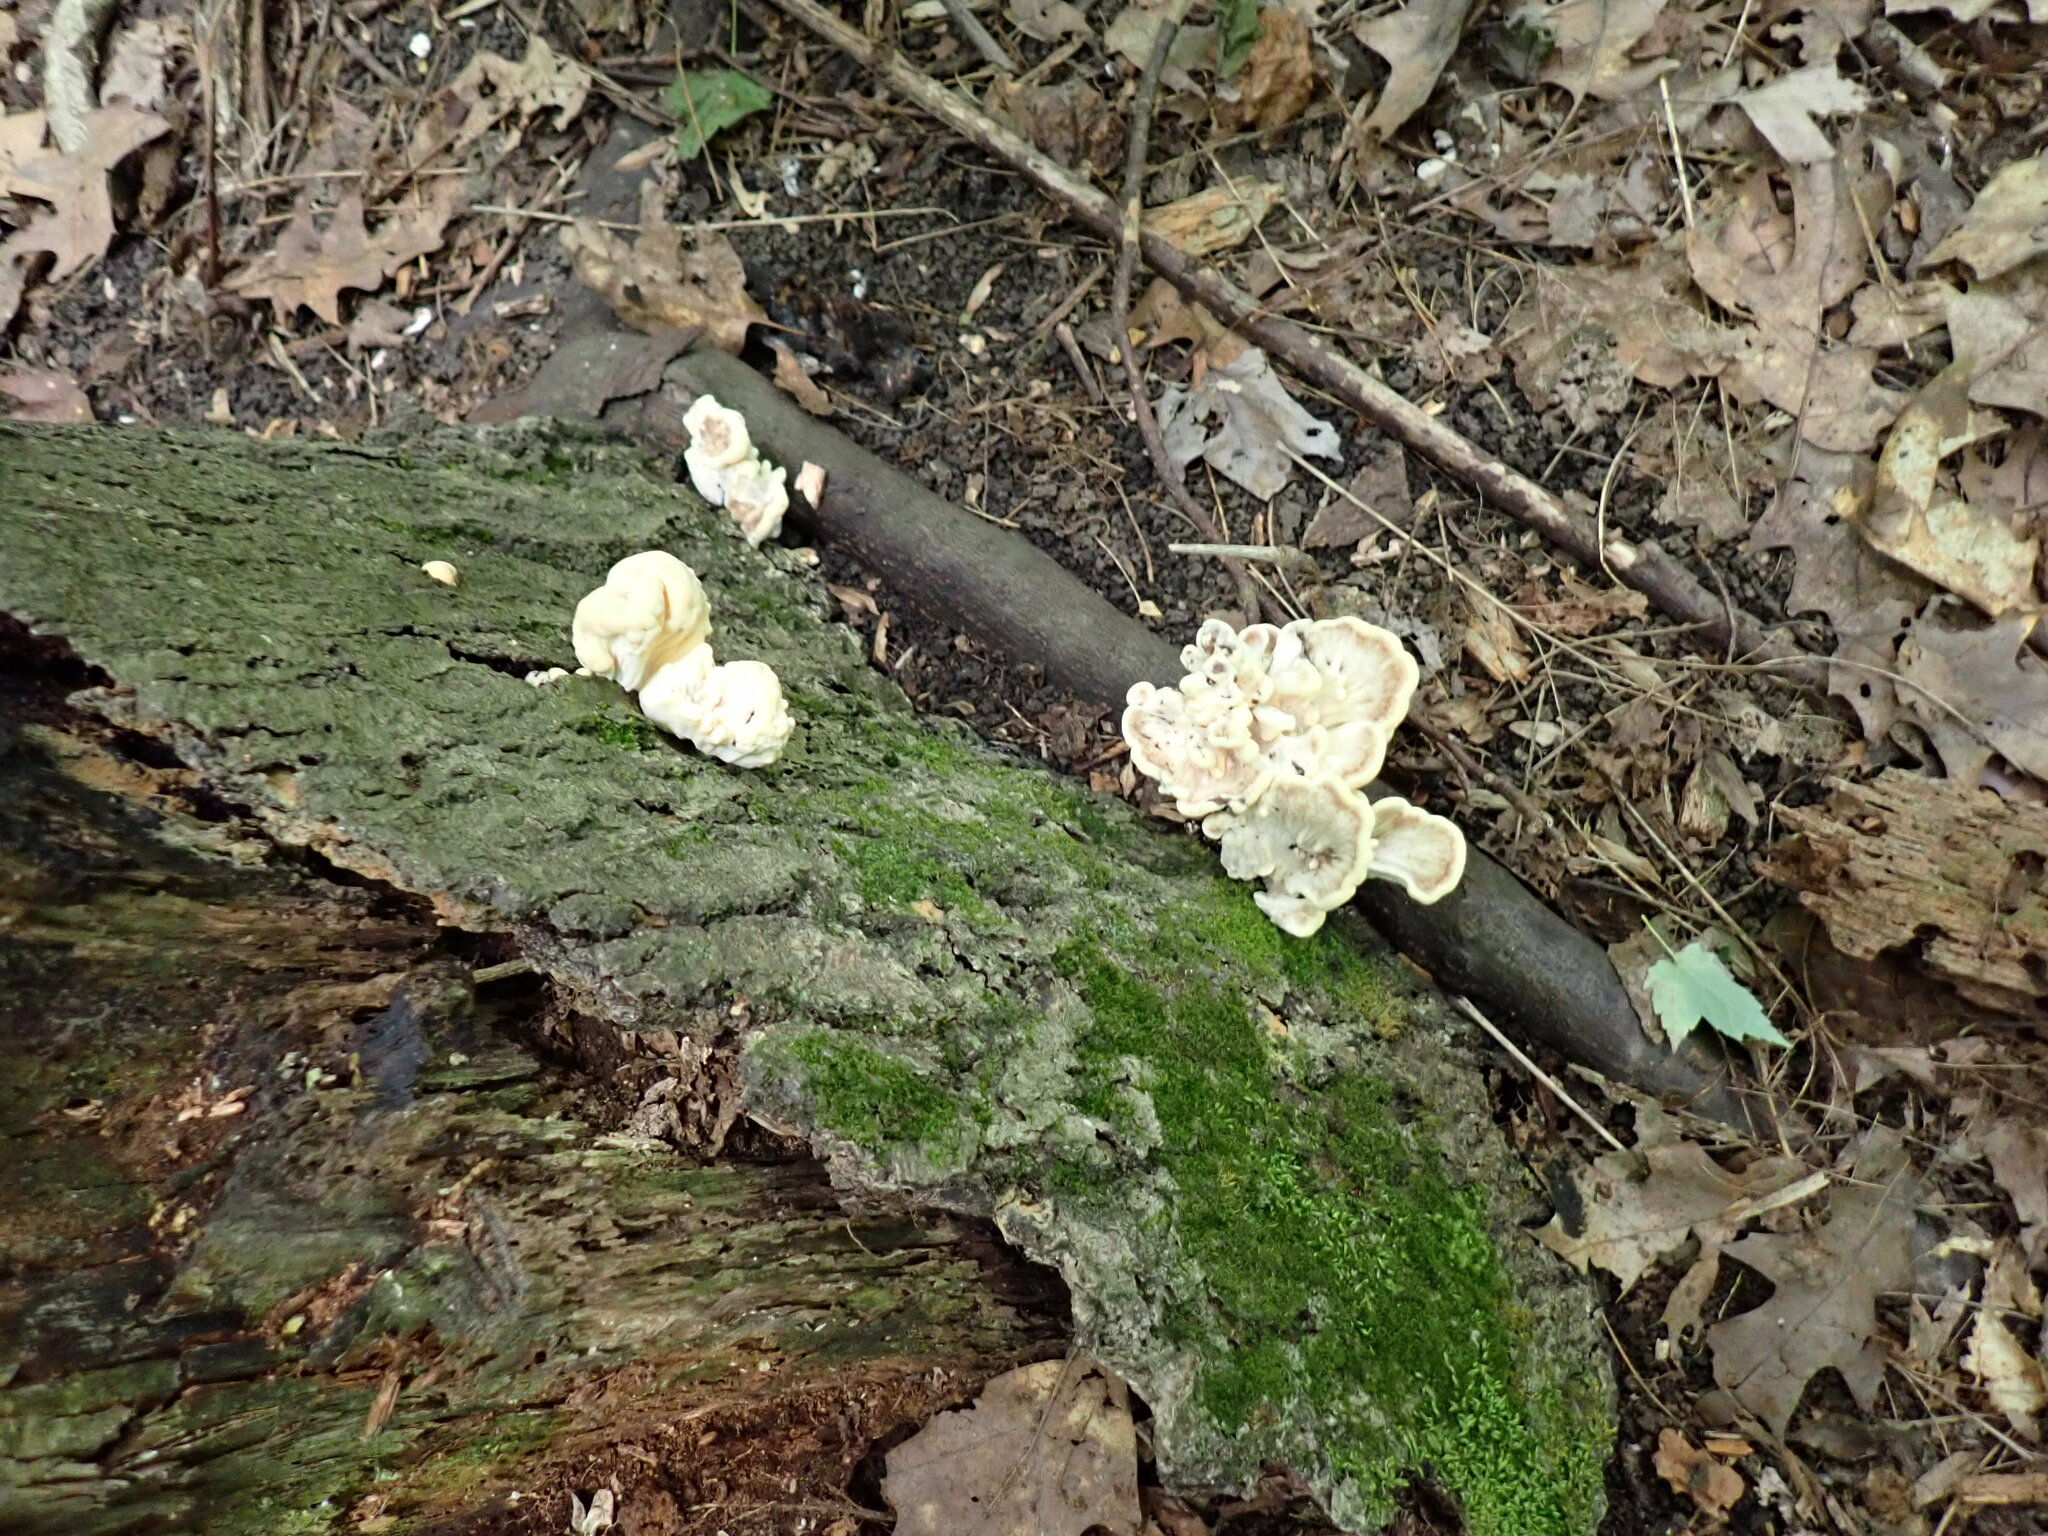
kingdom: Fungi
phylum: Basidiomycota
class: Agaricomycetes
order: Polyporales
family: Meripilaceae
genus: Meripilus
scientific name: Meripilus sumstinei
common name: Black-staining polypore
